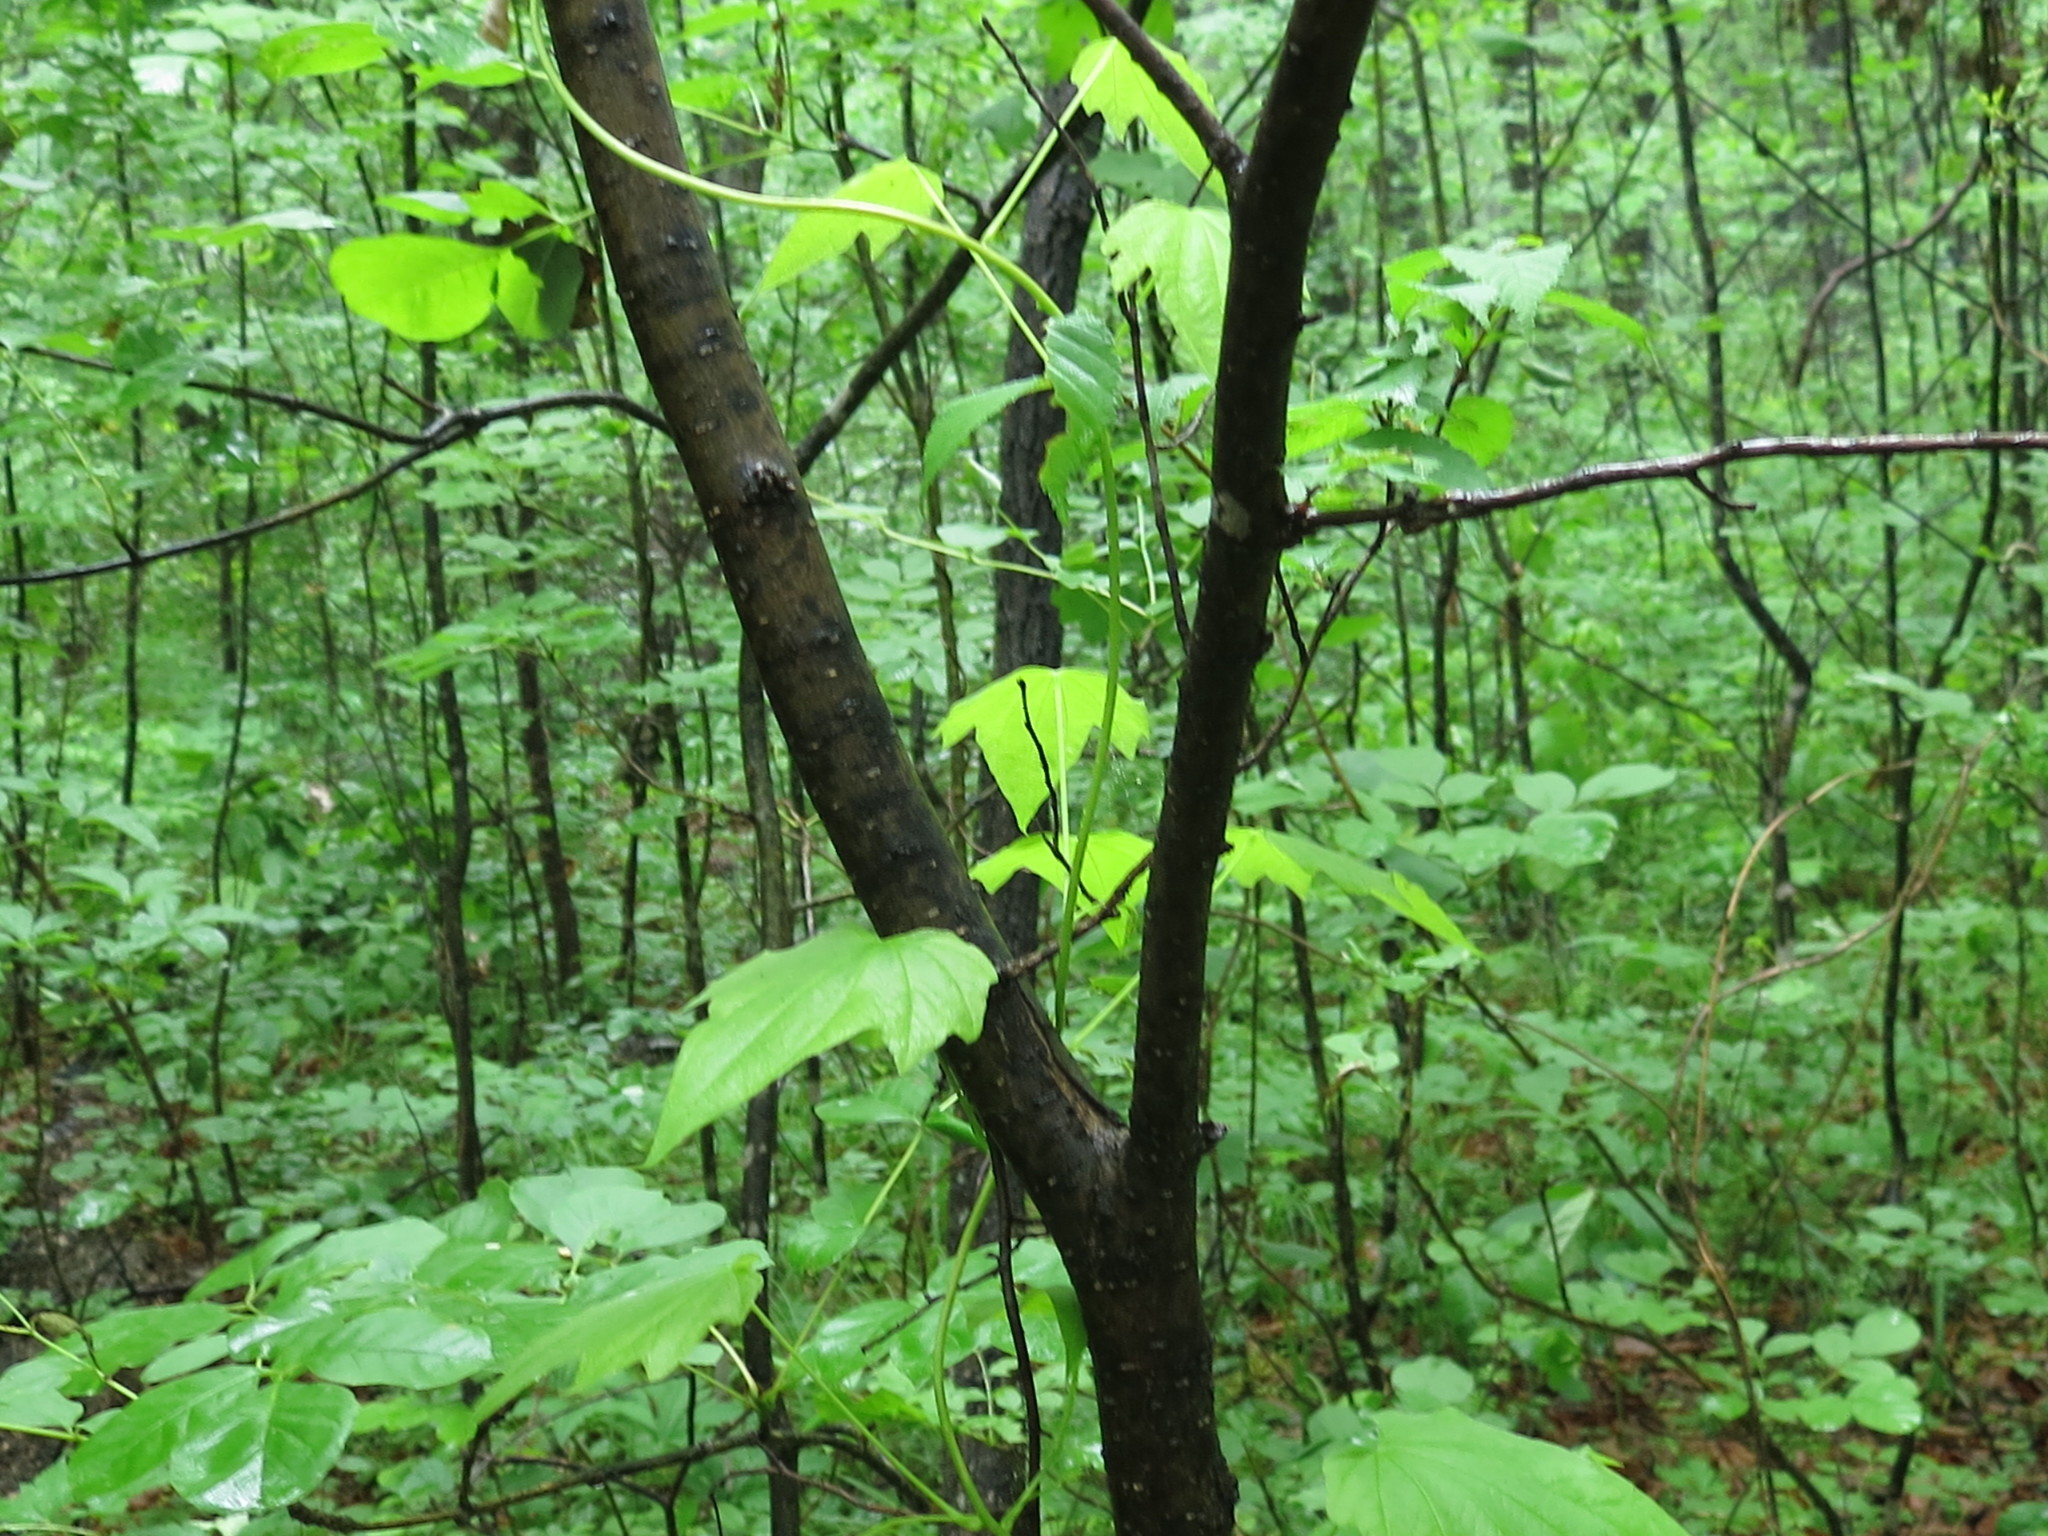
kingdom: Plantae
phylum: Tracheophyta
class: Liliopsida
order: Dioscoreales
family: Dioscoreaceae
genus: Dioscorea
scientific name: Dioscorea nipponica
